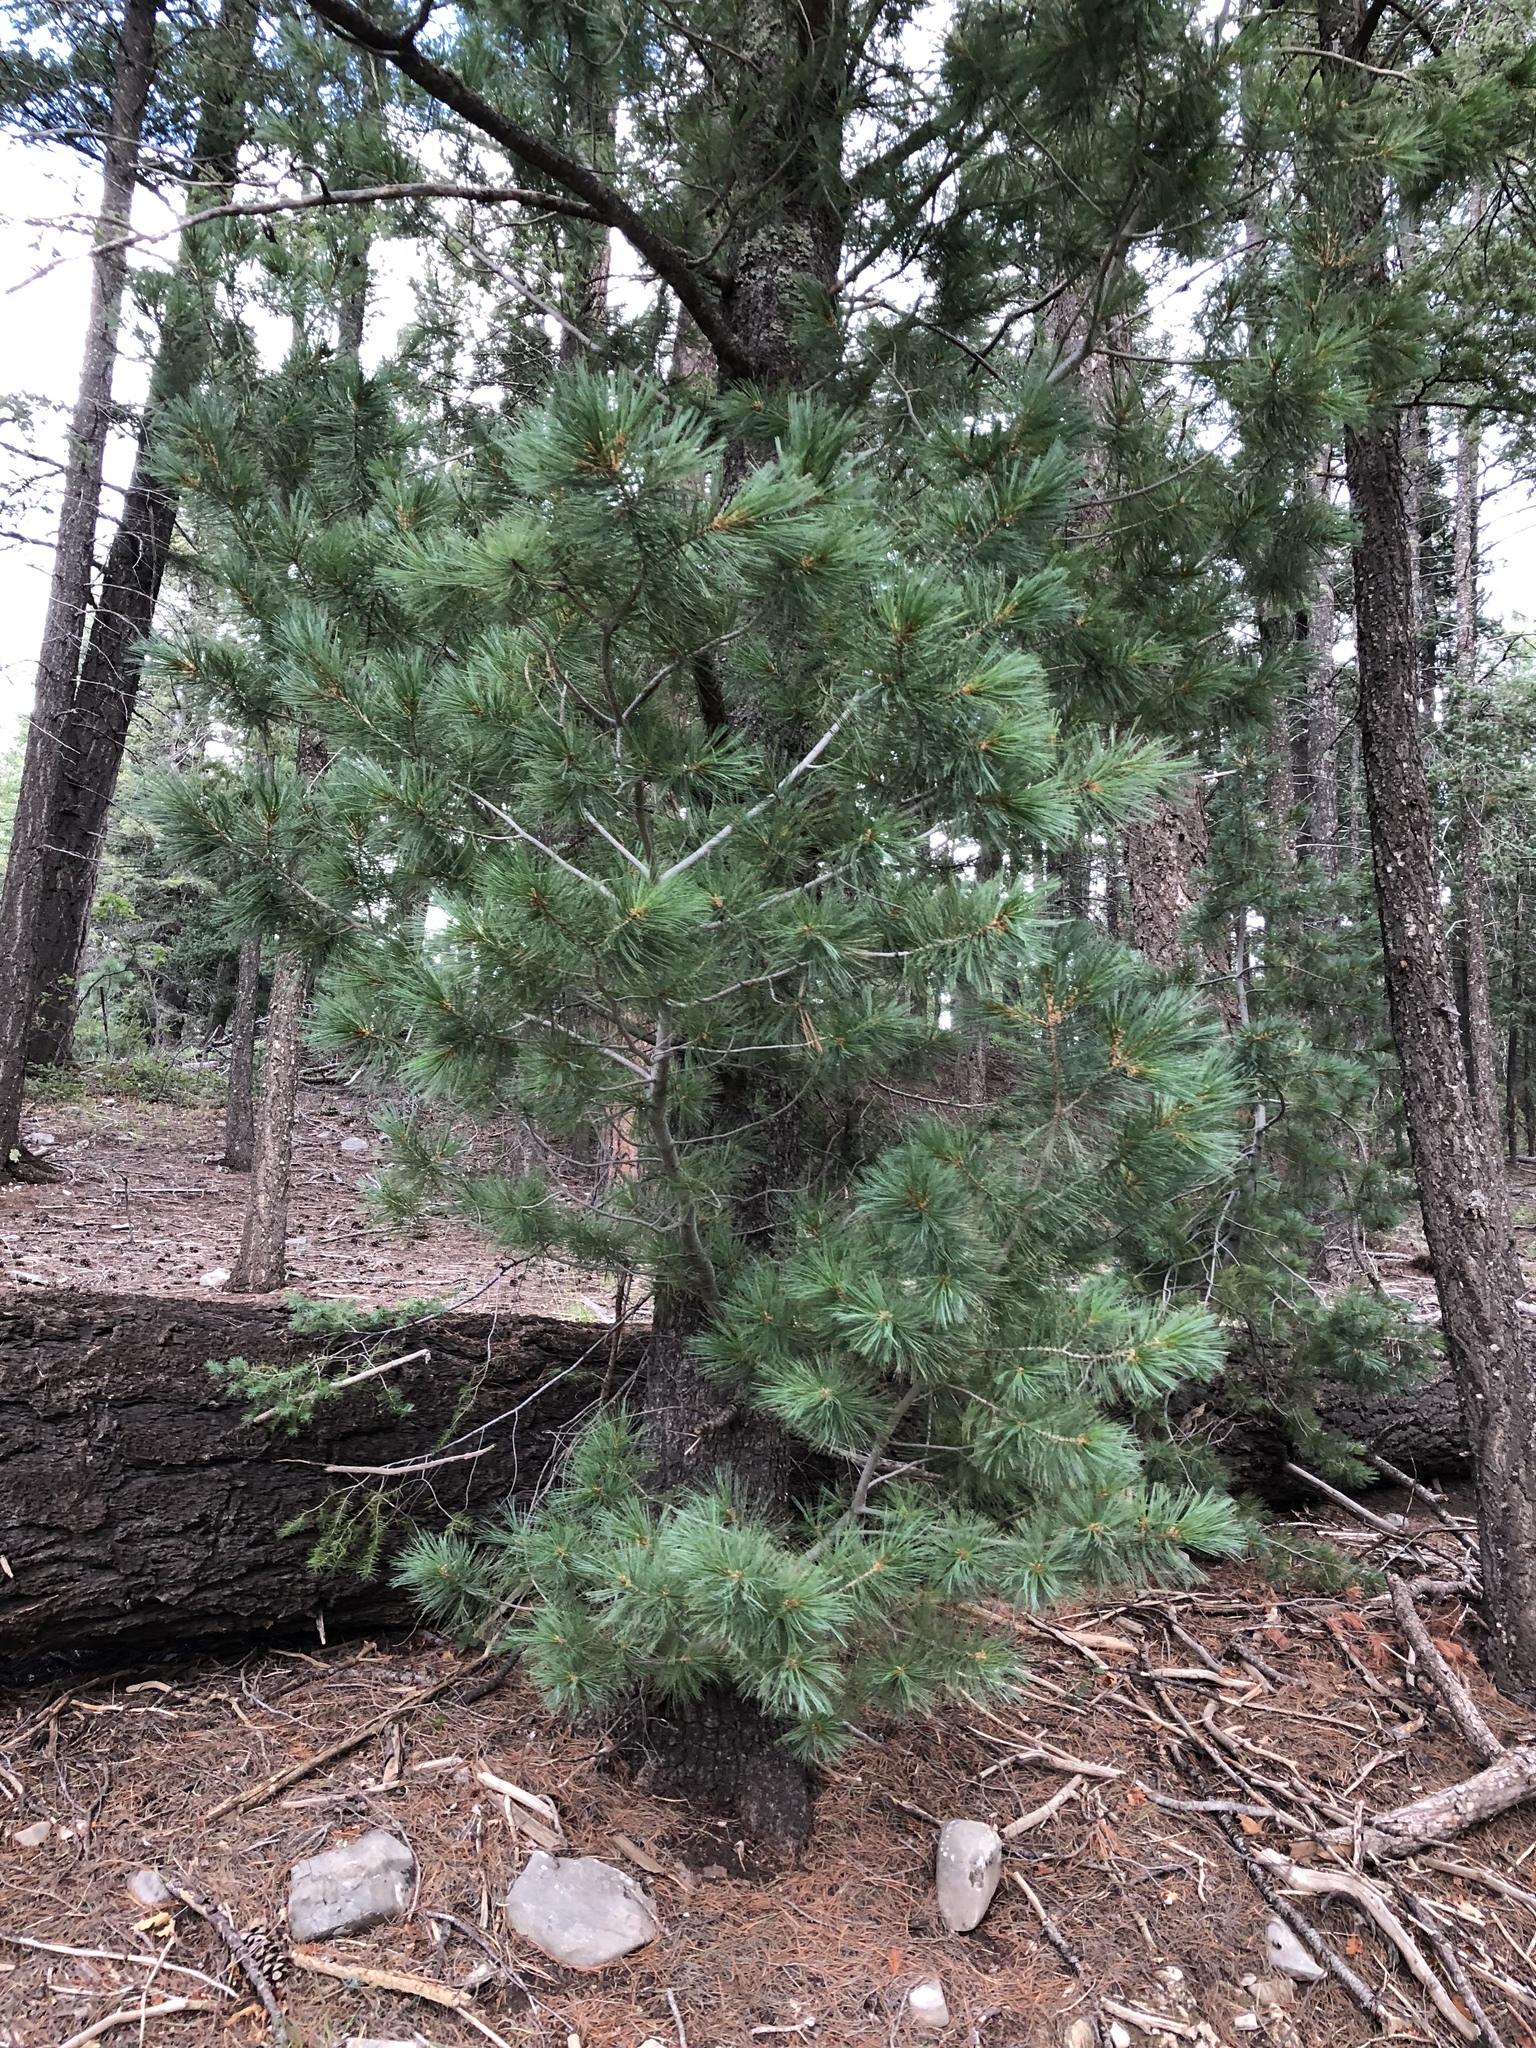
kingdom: Plantae
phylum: Tracheophyta
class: Pinopsida
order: Pinales
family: Pinaceae
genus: Pinus
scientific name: Pinus strobiformis
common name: Southwestern white pine
